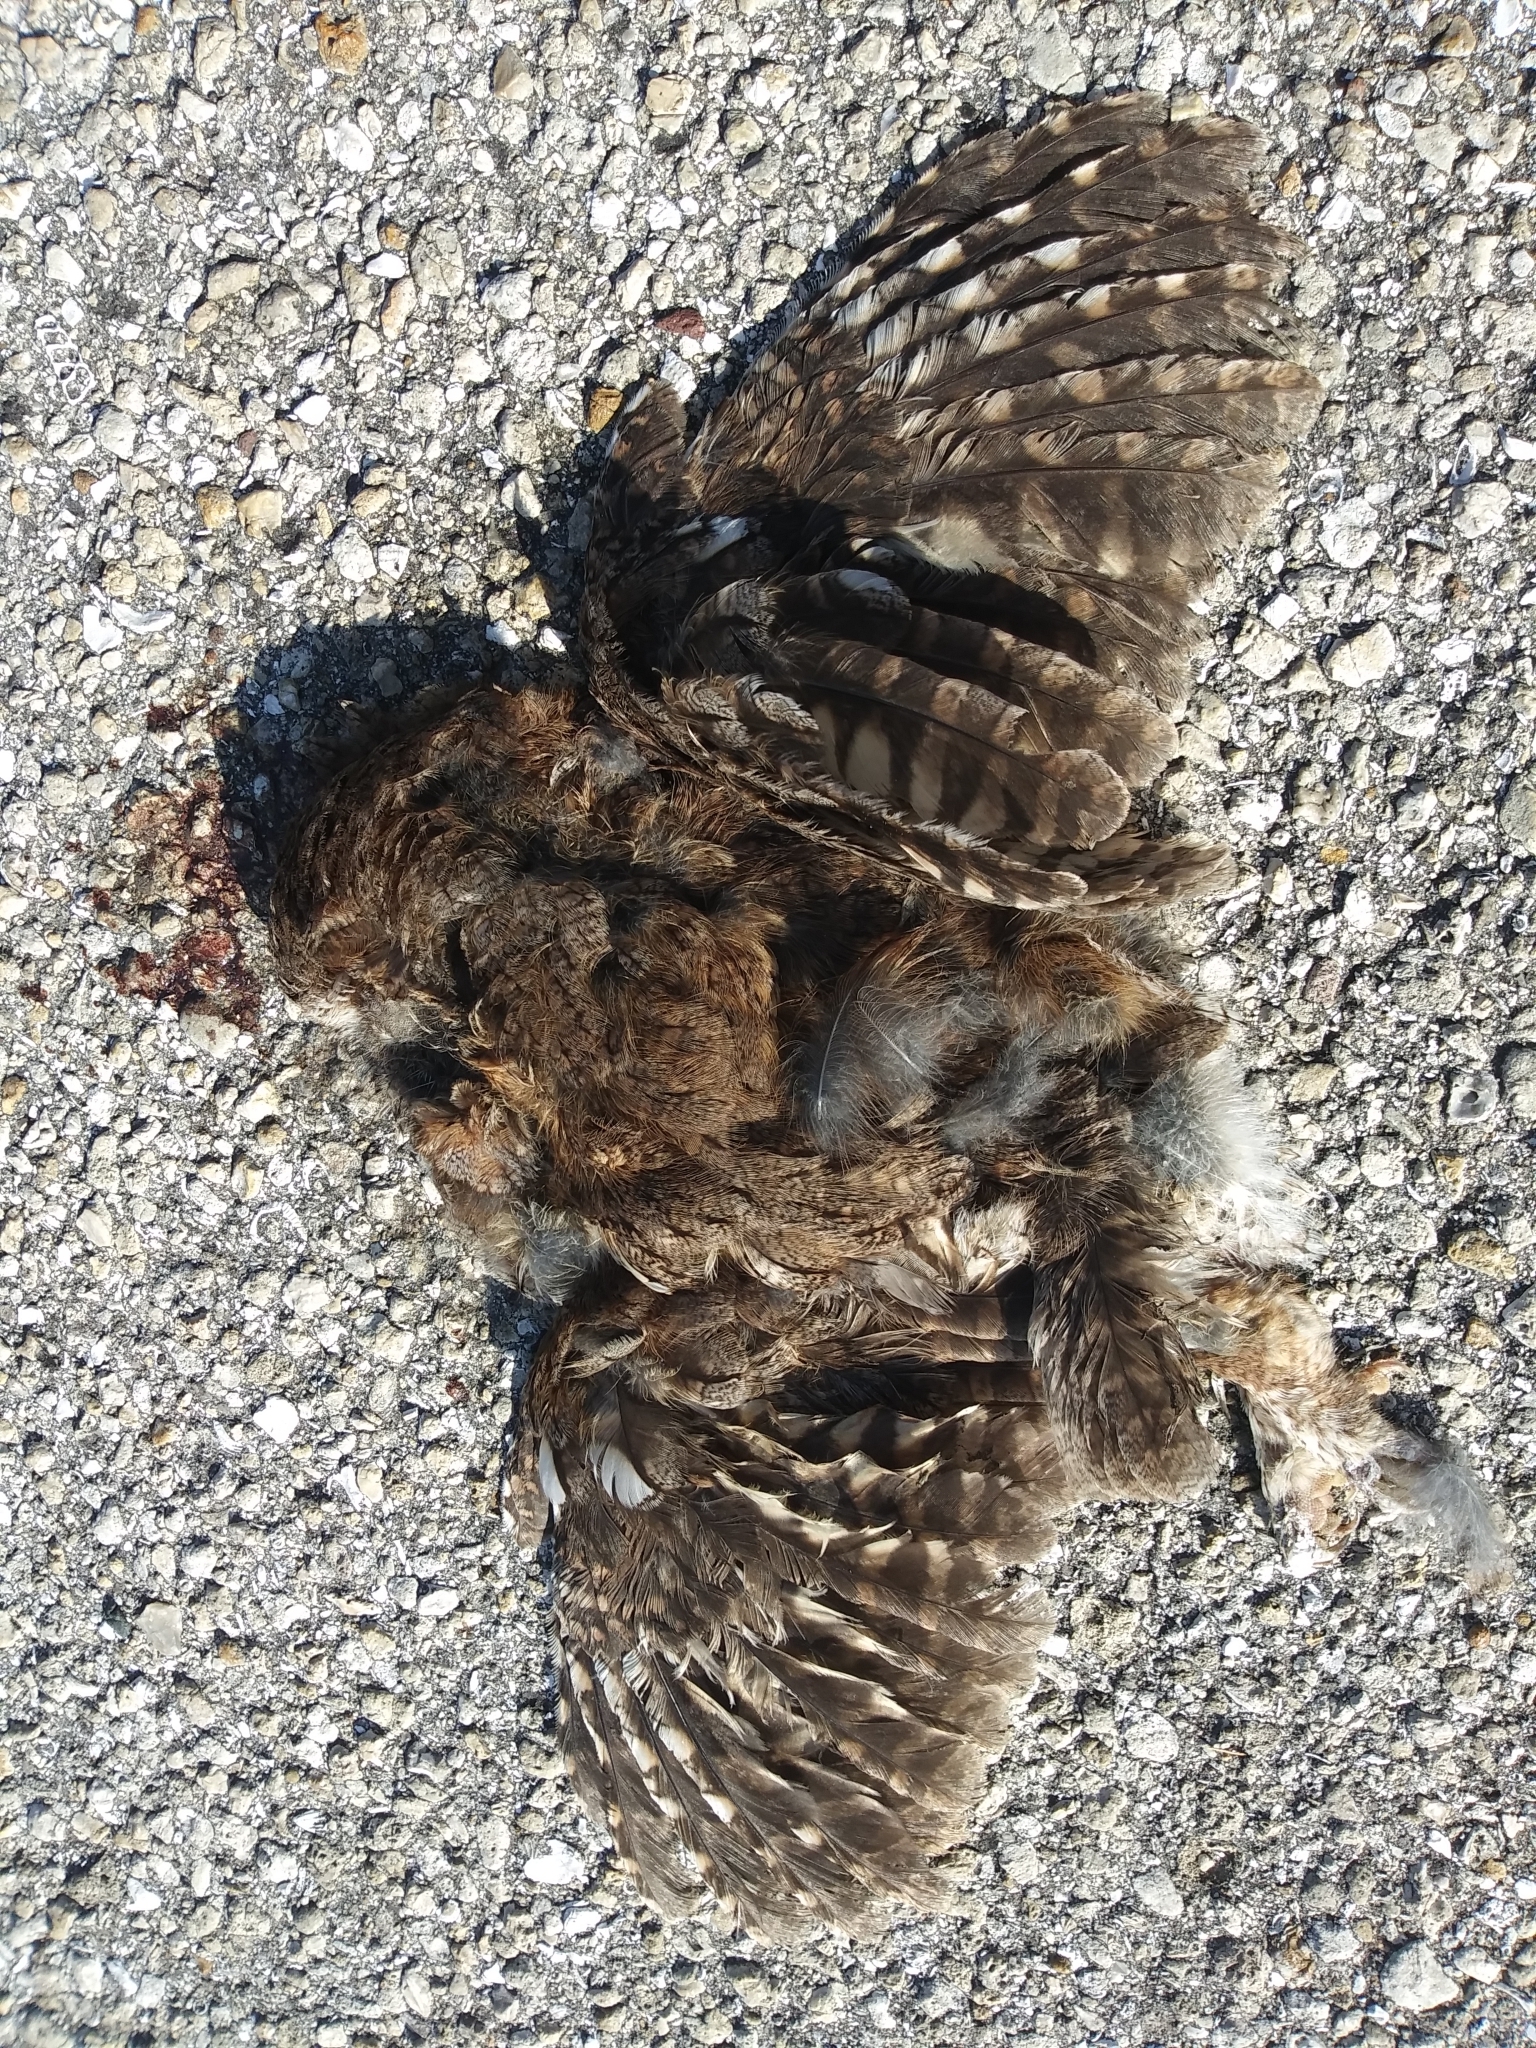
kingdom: Animalia
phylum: Chordata
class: Aves
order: Strigiformes
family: Strigidae
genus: Megascops
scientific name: Megascops asio
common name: Eastern screech-owl
